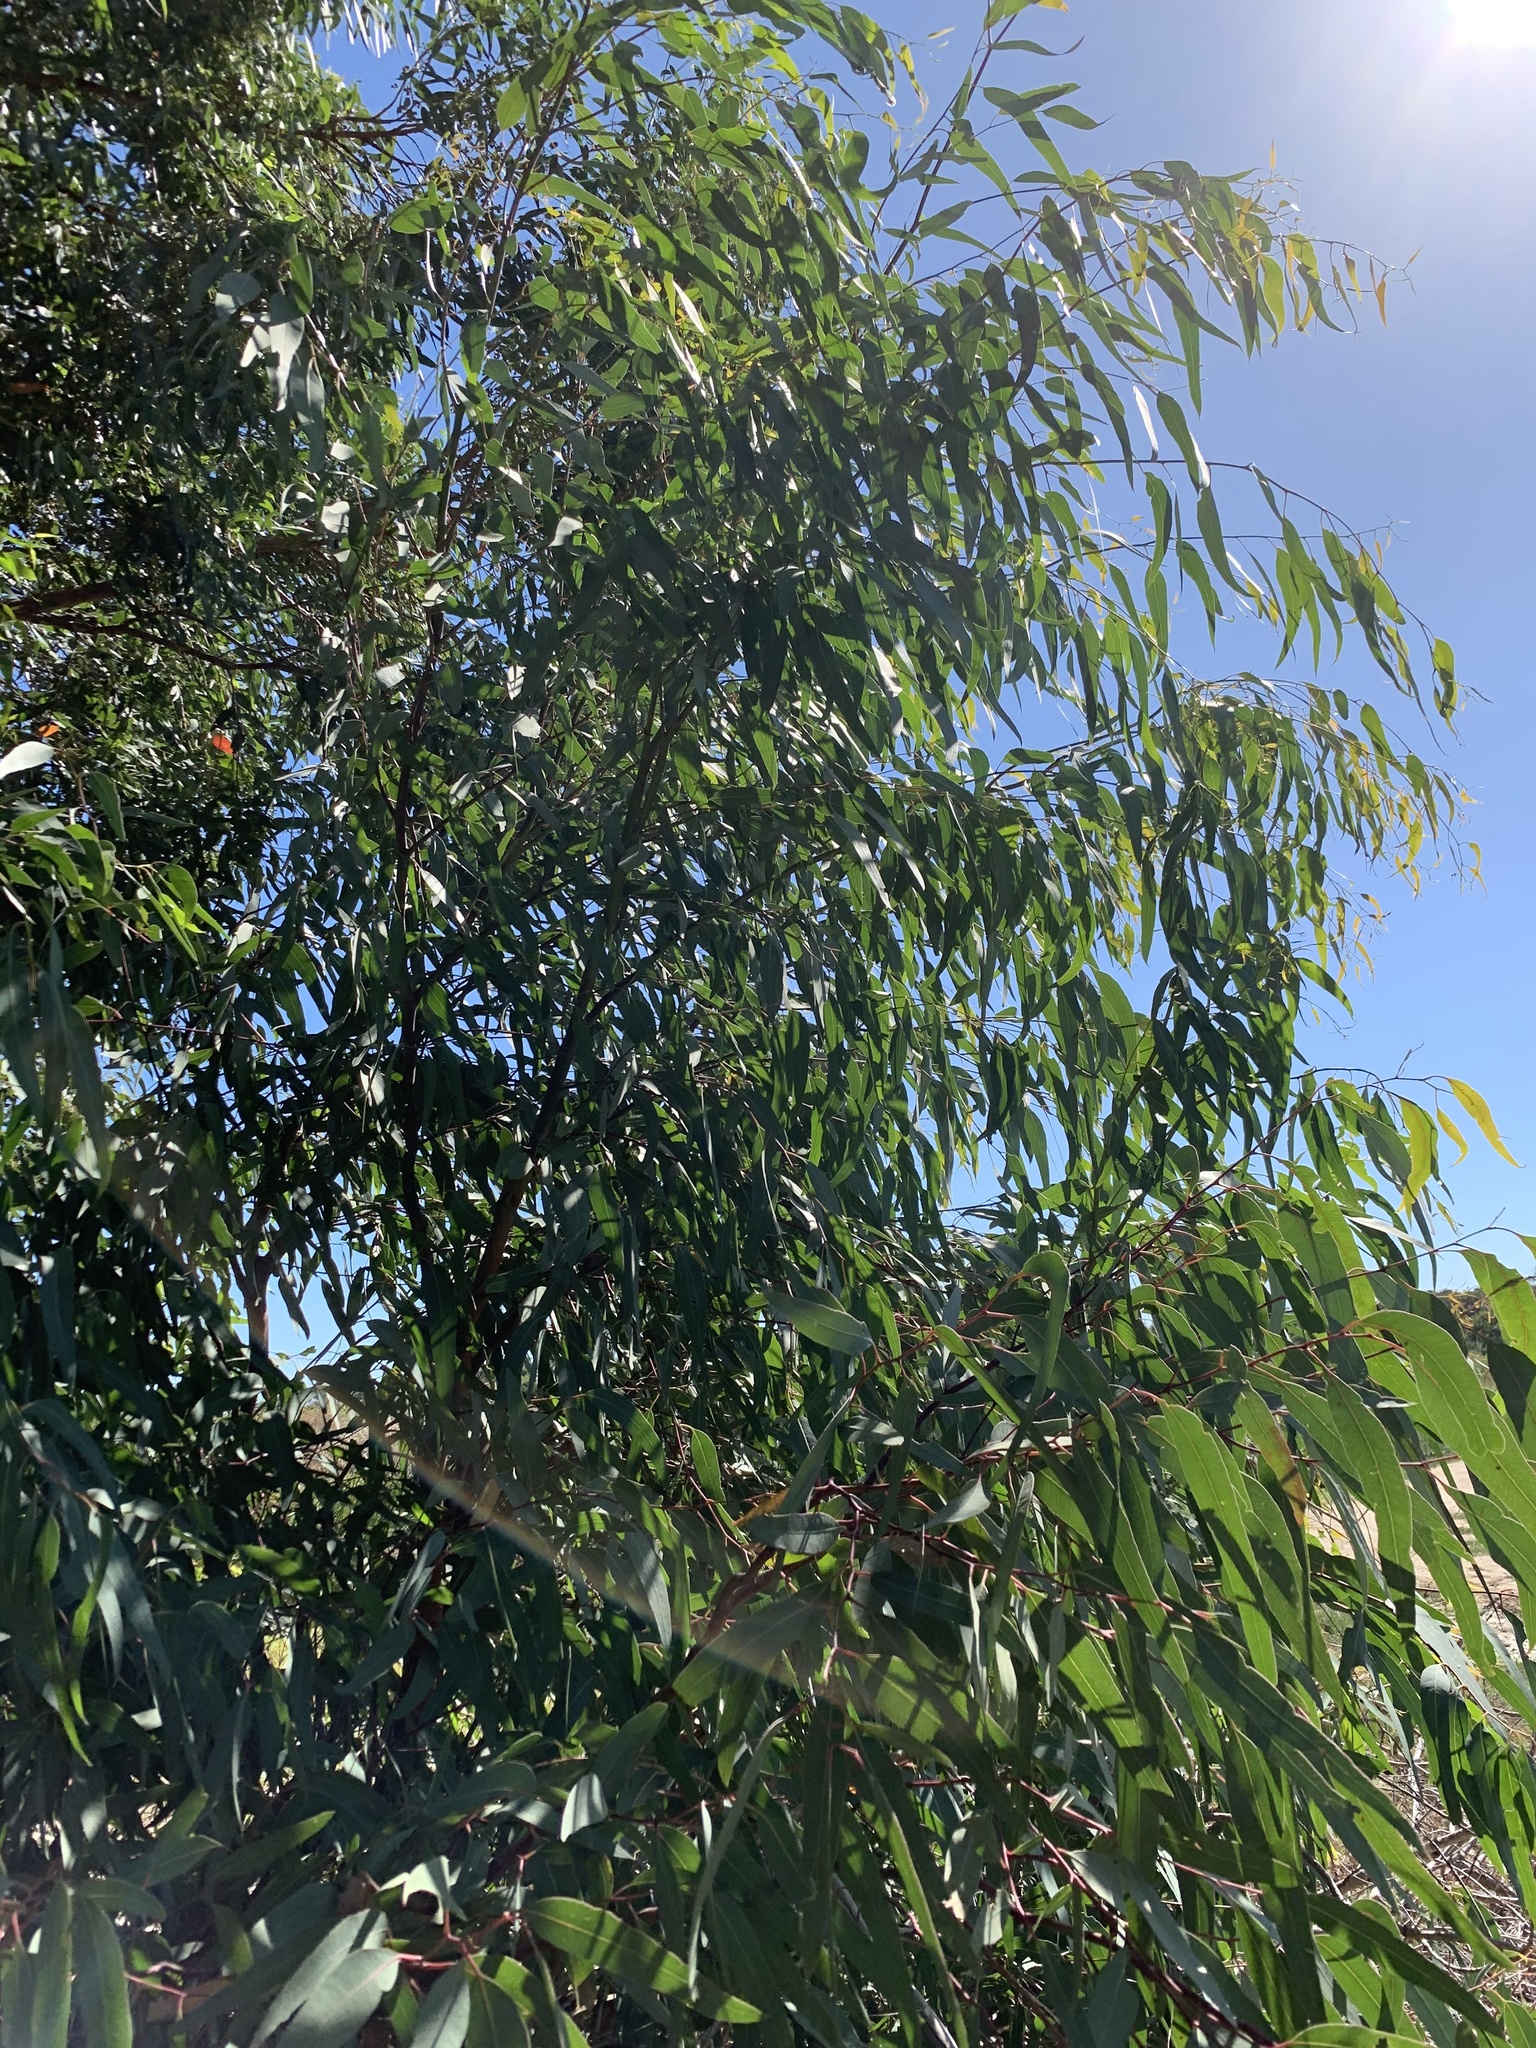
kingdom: Plantae
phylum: Tracheophyta
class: Magnoliopsida
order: Myrtales
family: Myrtaceae
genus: Eucalyptus
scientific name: Eucalyptus camaldulensis
